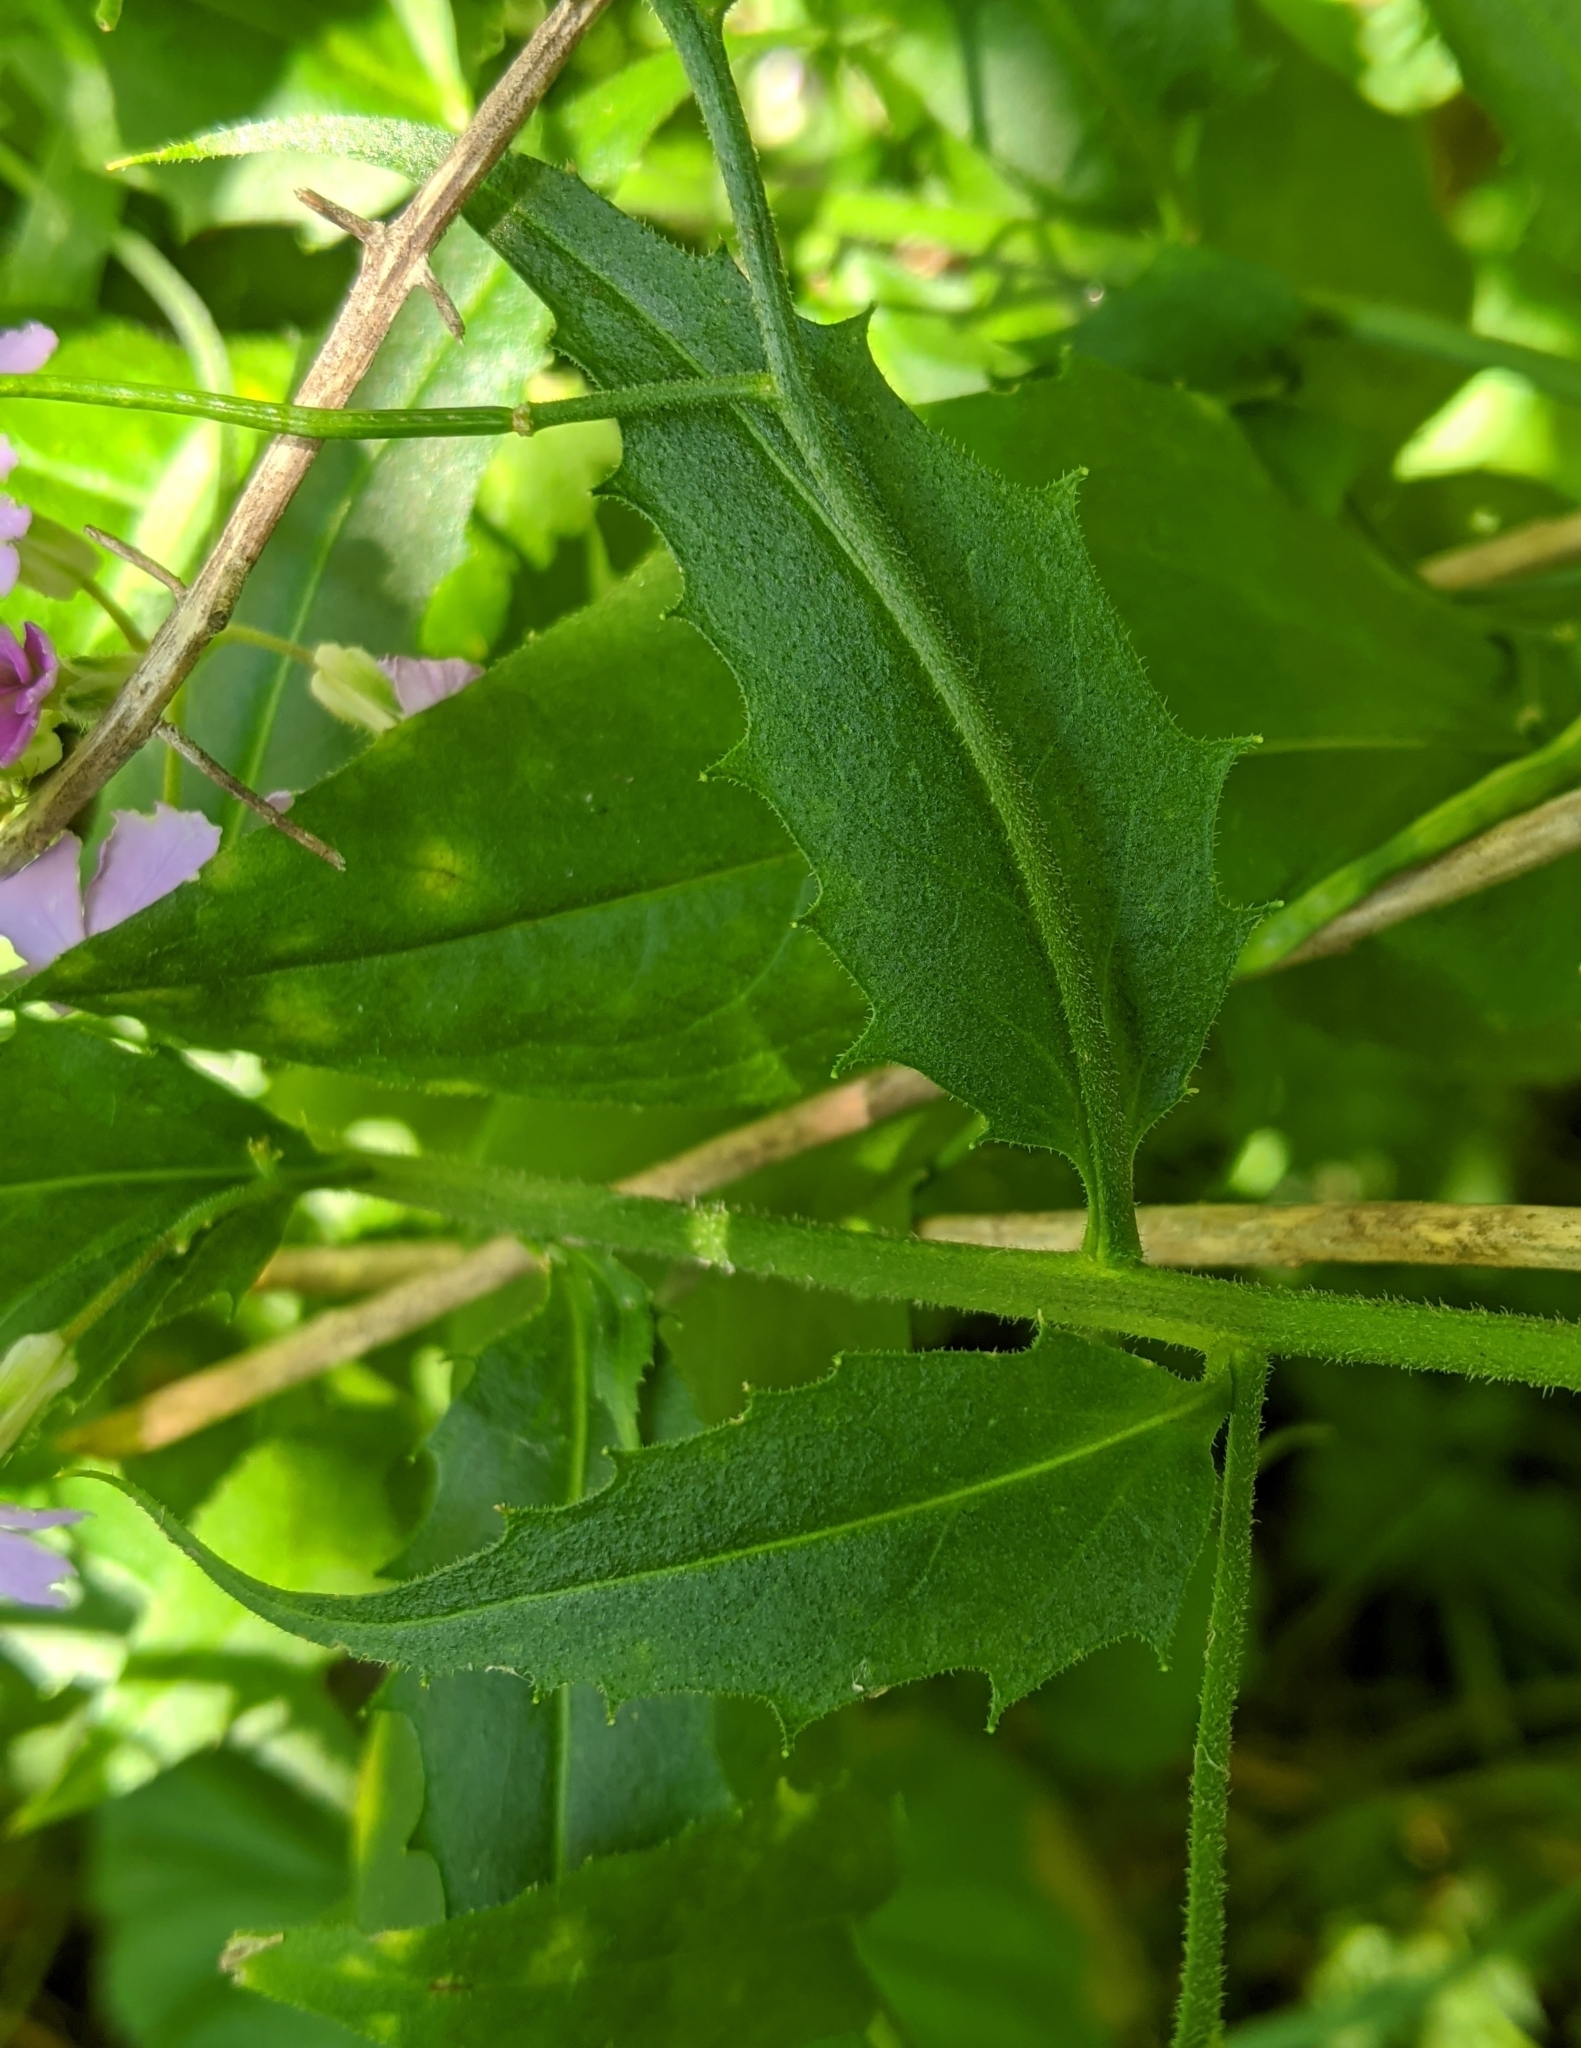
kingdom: Plantae
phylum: Tracheophyta
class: Magnoliopsida
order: Brassicales
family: Brassicaceae
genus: Hesperis
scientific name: Hesperis matronalis
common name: Dame's-violet
